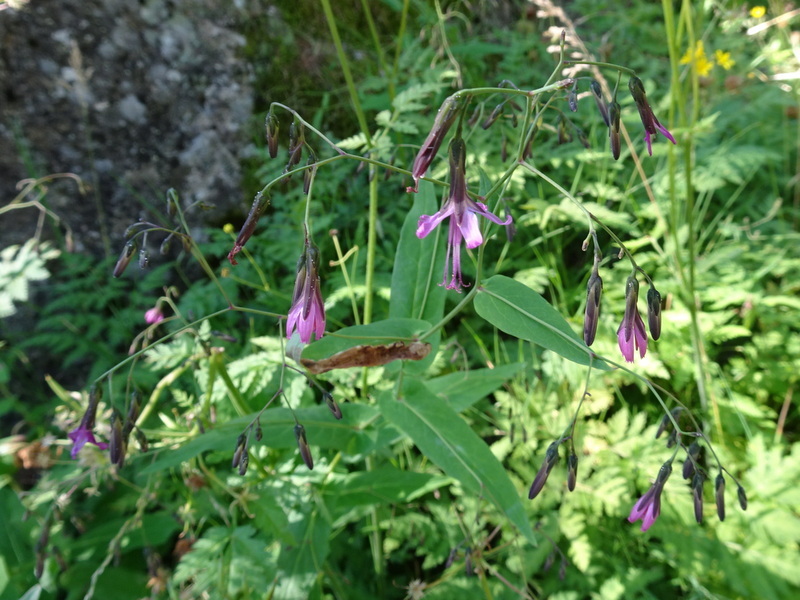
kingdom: Plantae
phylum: Tracheophyta
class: Magnoliopsida
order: Asterales
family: Asteraceae
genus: Prenanthes
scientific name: Prenanthes purpurea
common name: Purple lettuce
